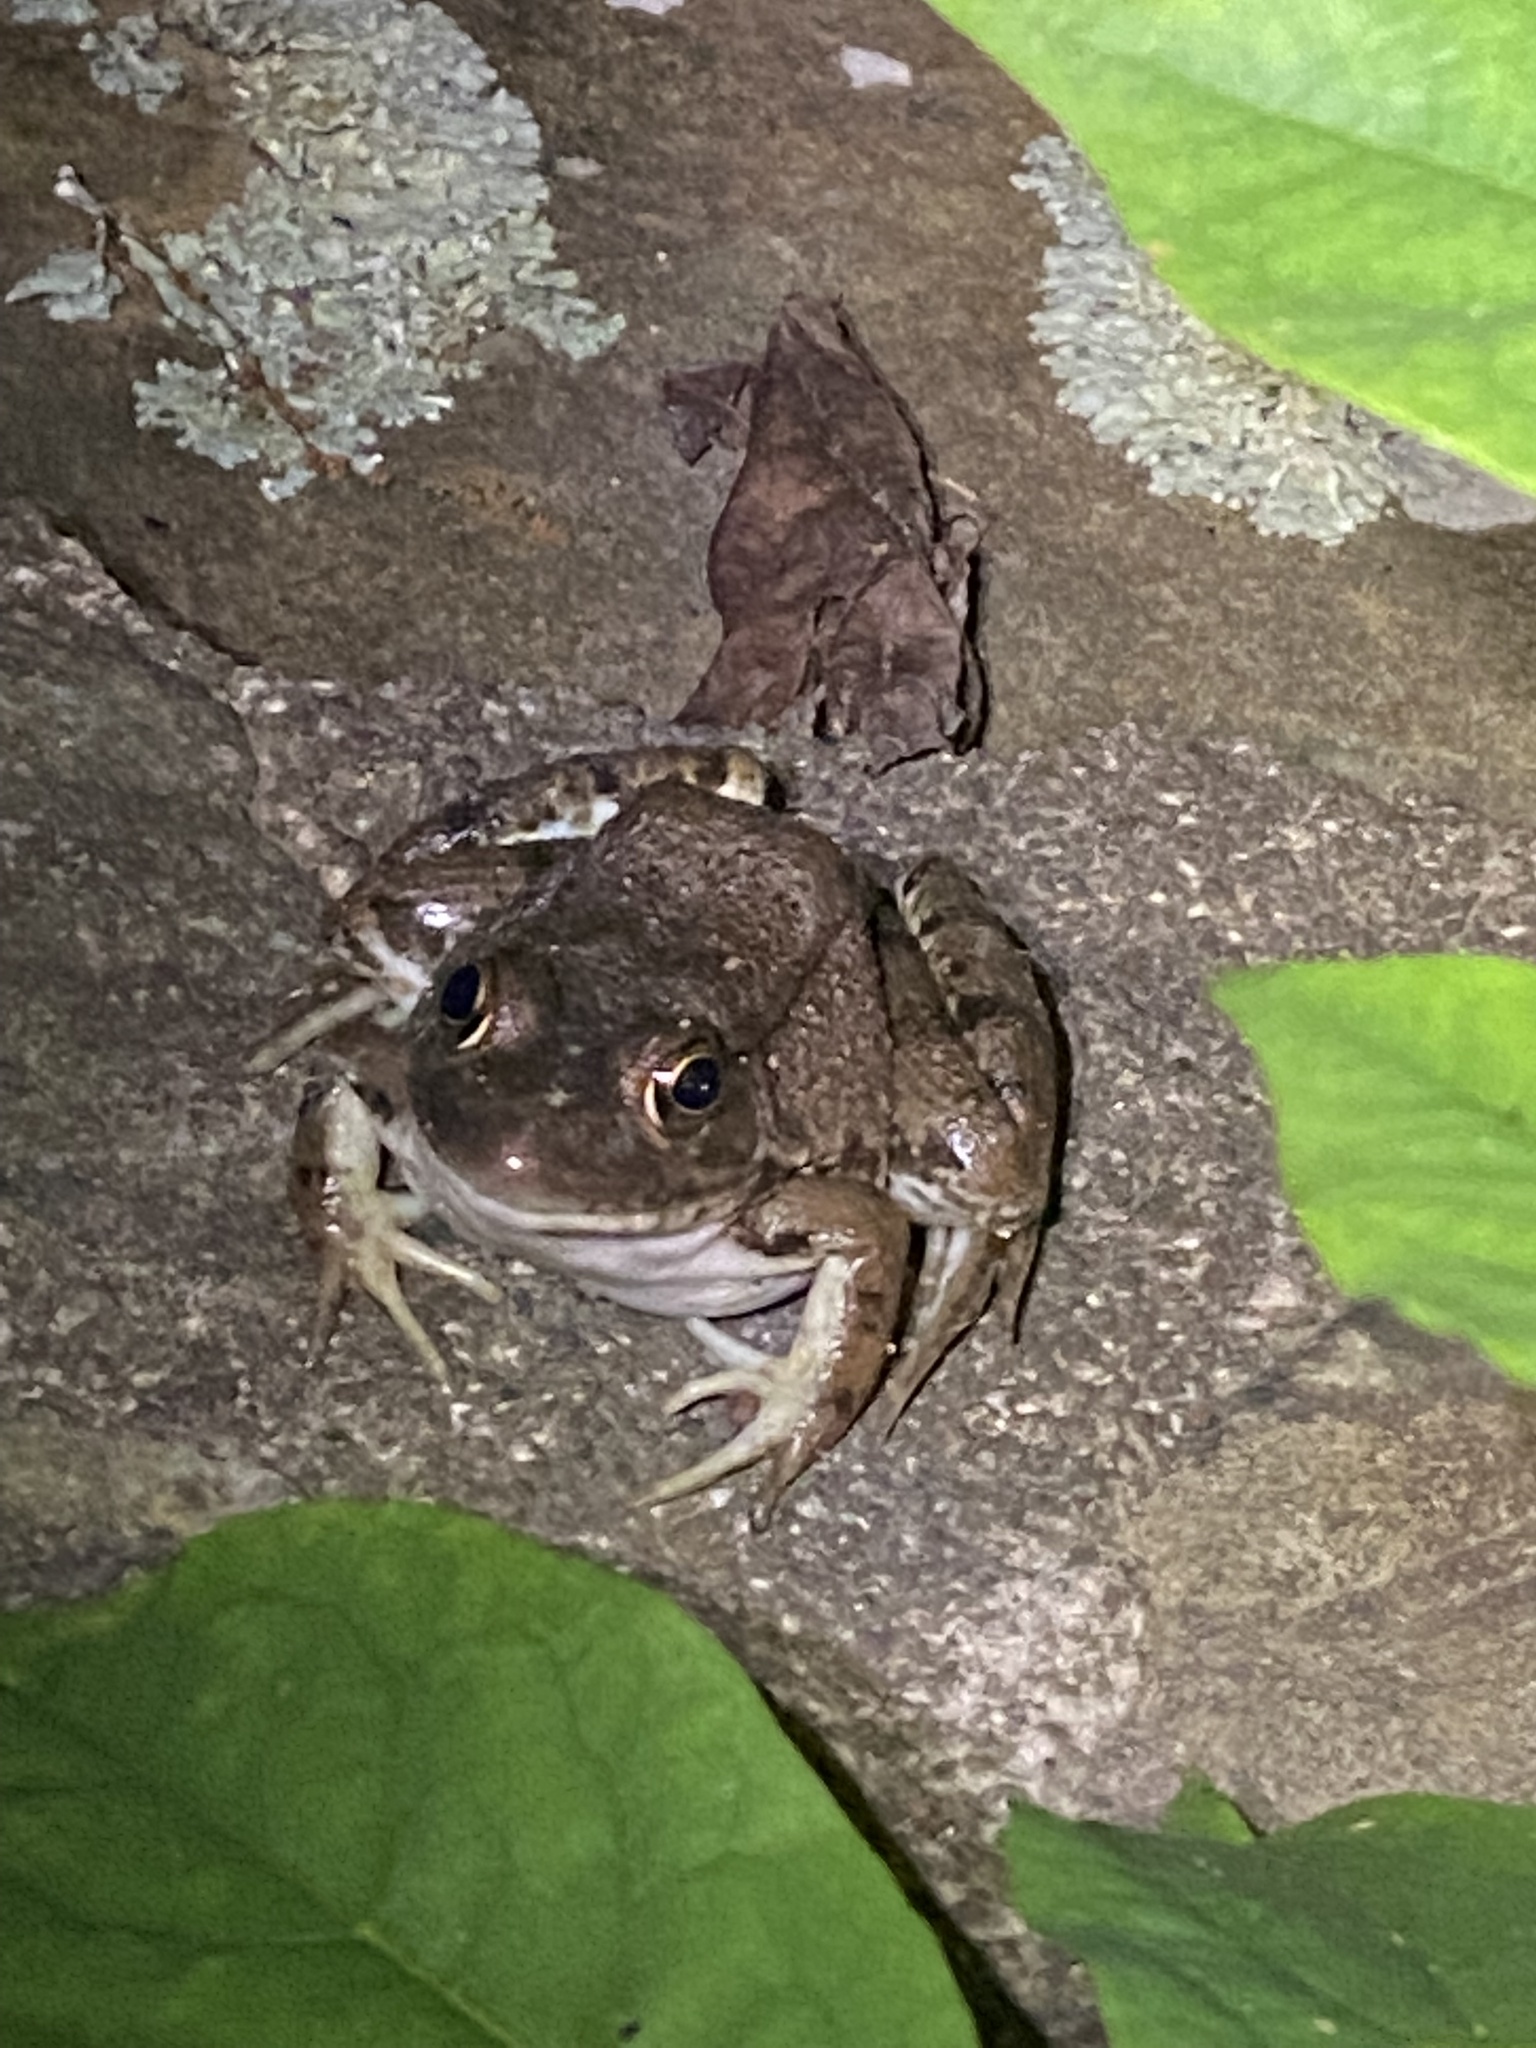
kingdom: Animalia
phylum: Chordata
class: Amphibia
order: Anura
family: Ranidae
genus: Lithobates
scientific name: Lithobates clamitans
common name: Green frog
